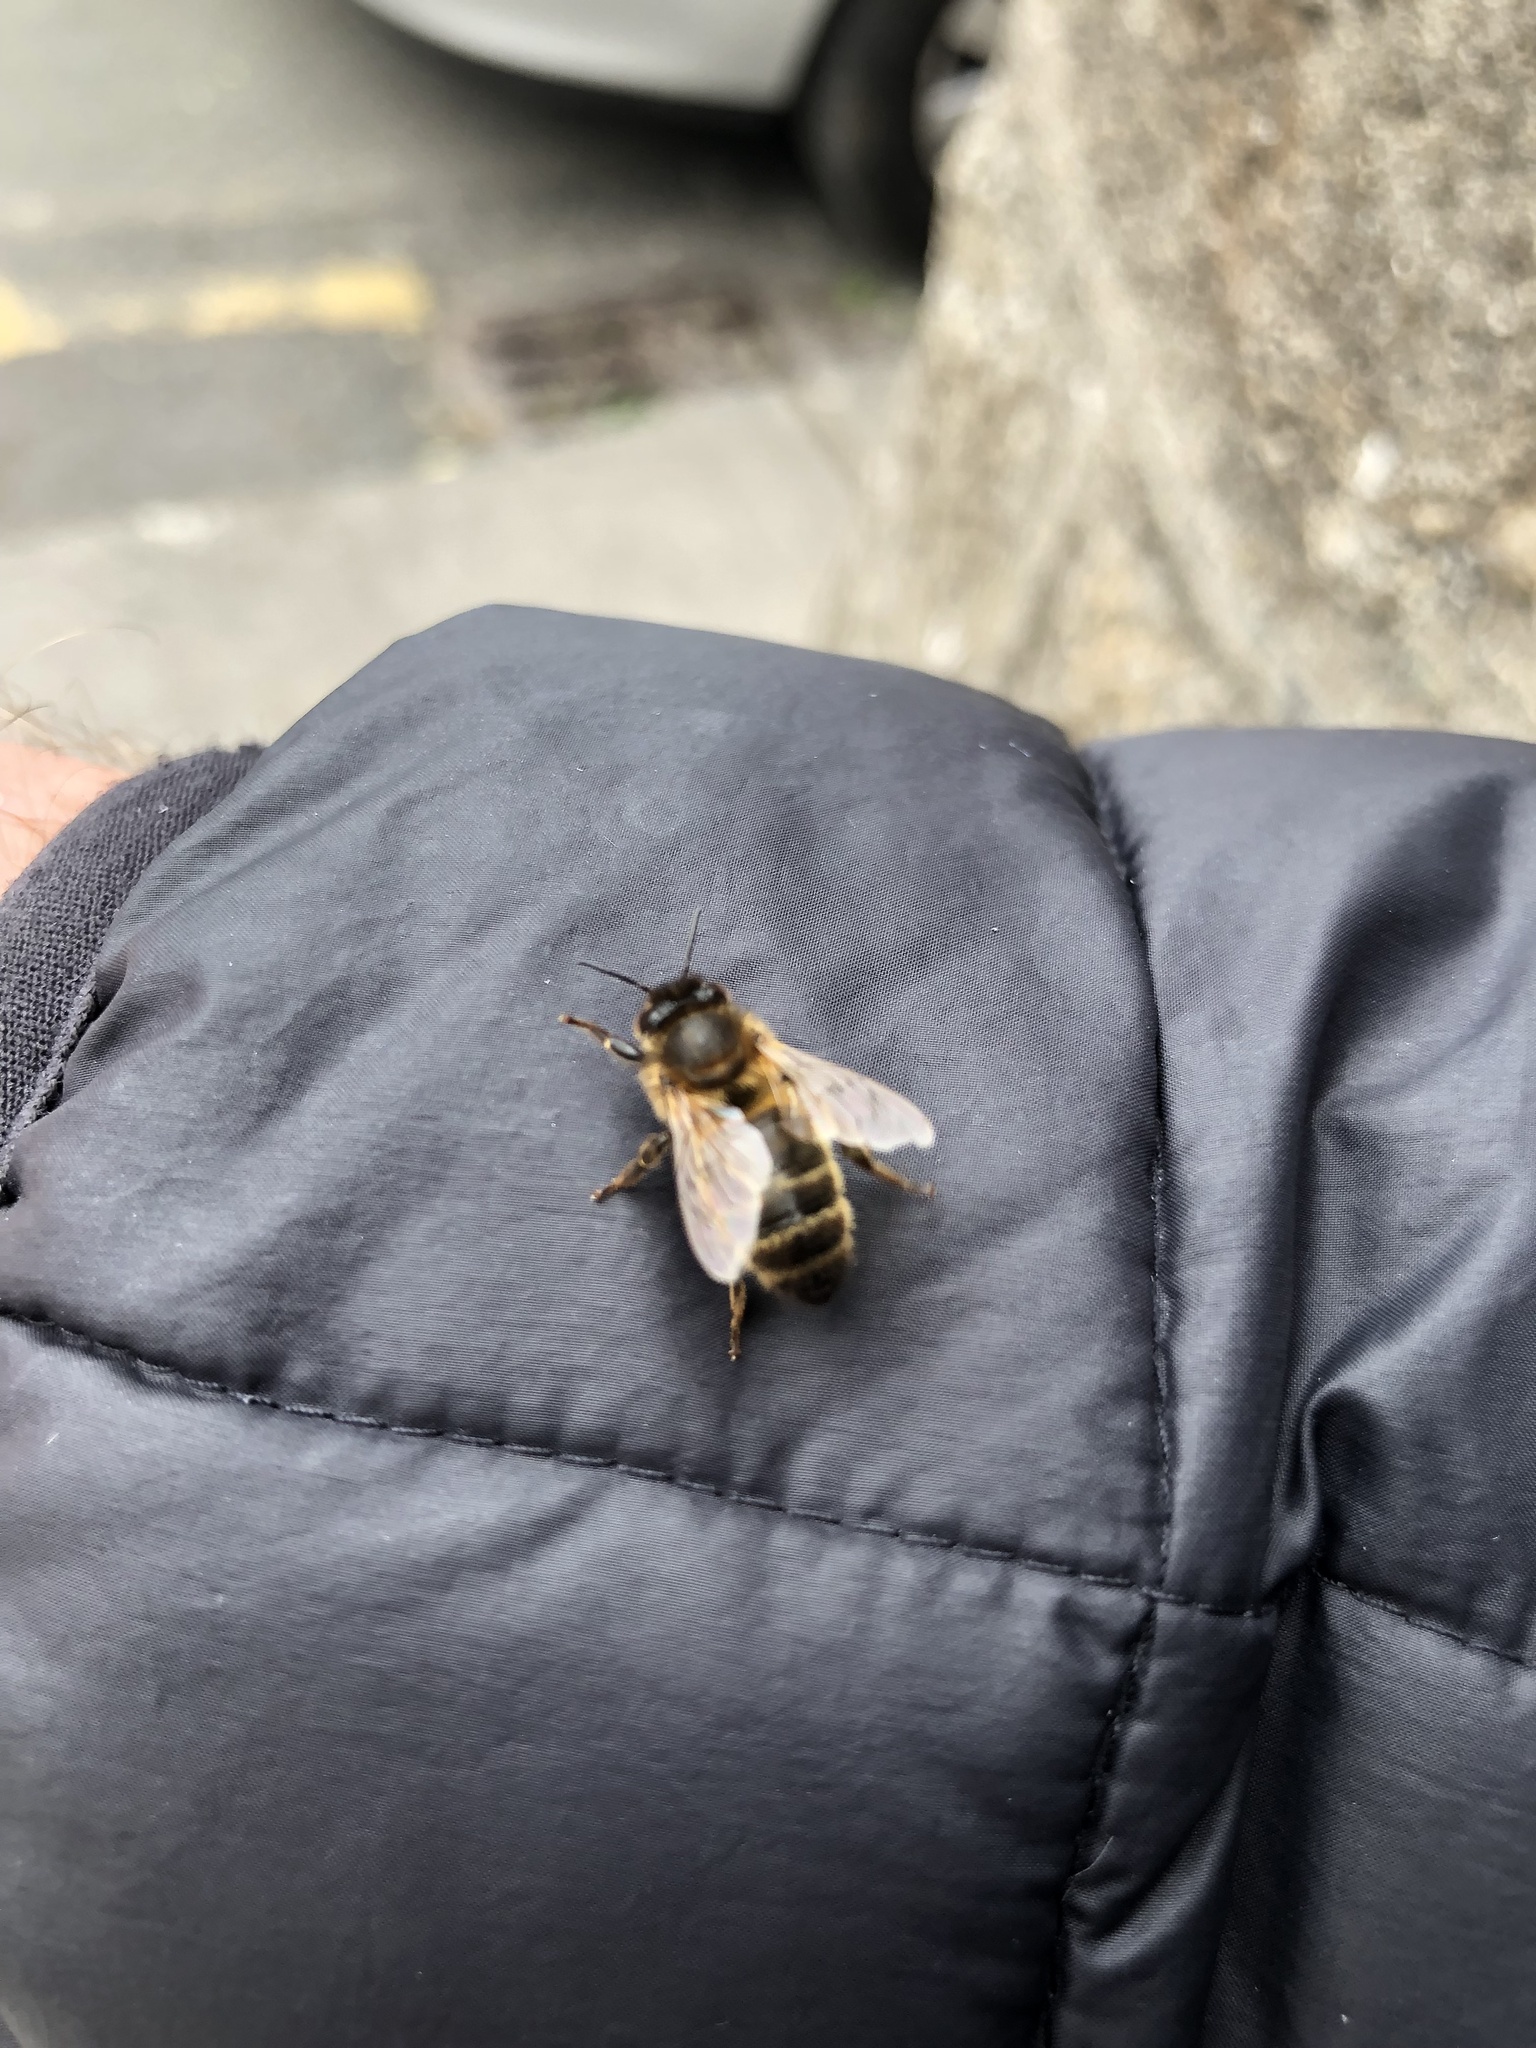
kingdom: Animalia
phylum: Arthropoda
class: Insecta
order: Hymenoptera
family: Apidae
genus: Apis
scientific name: Apis mellifera
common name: Honey bee
